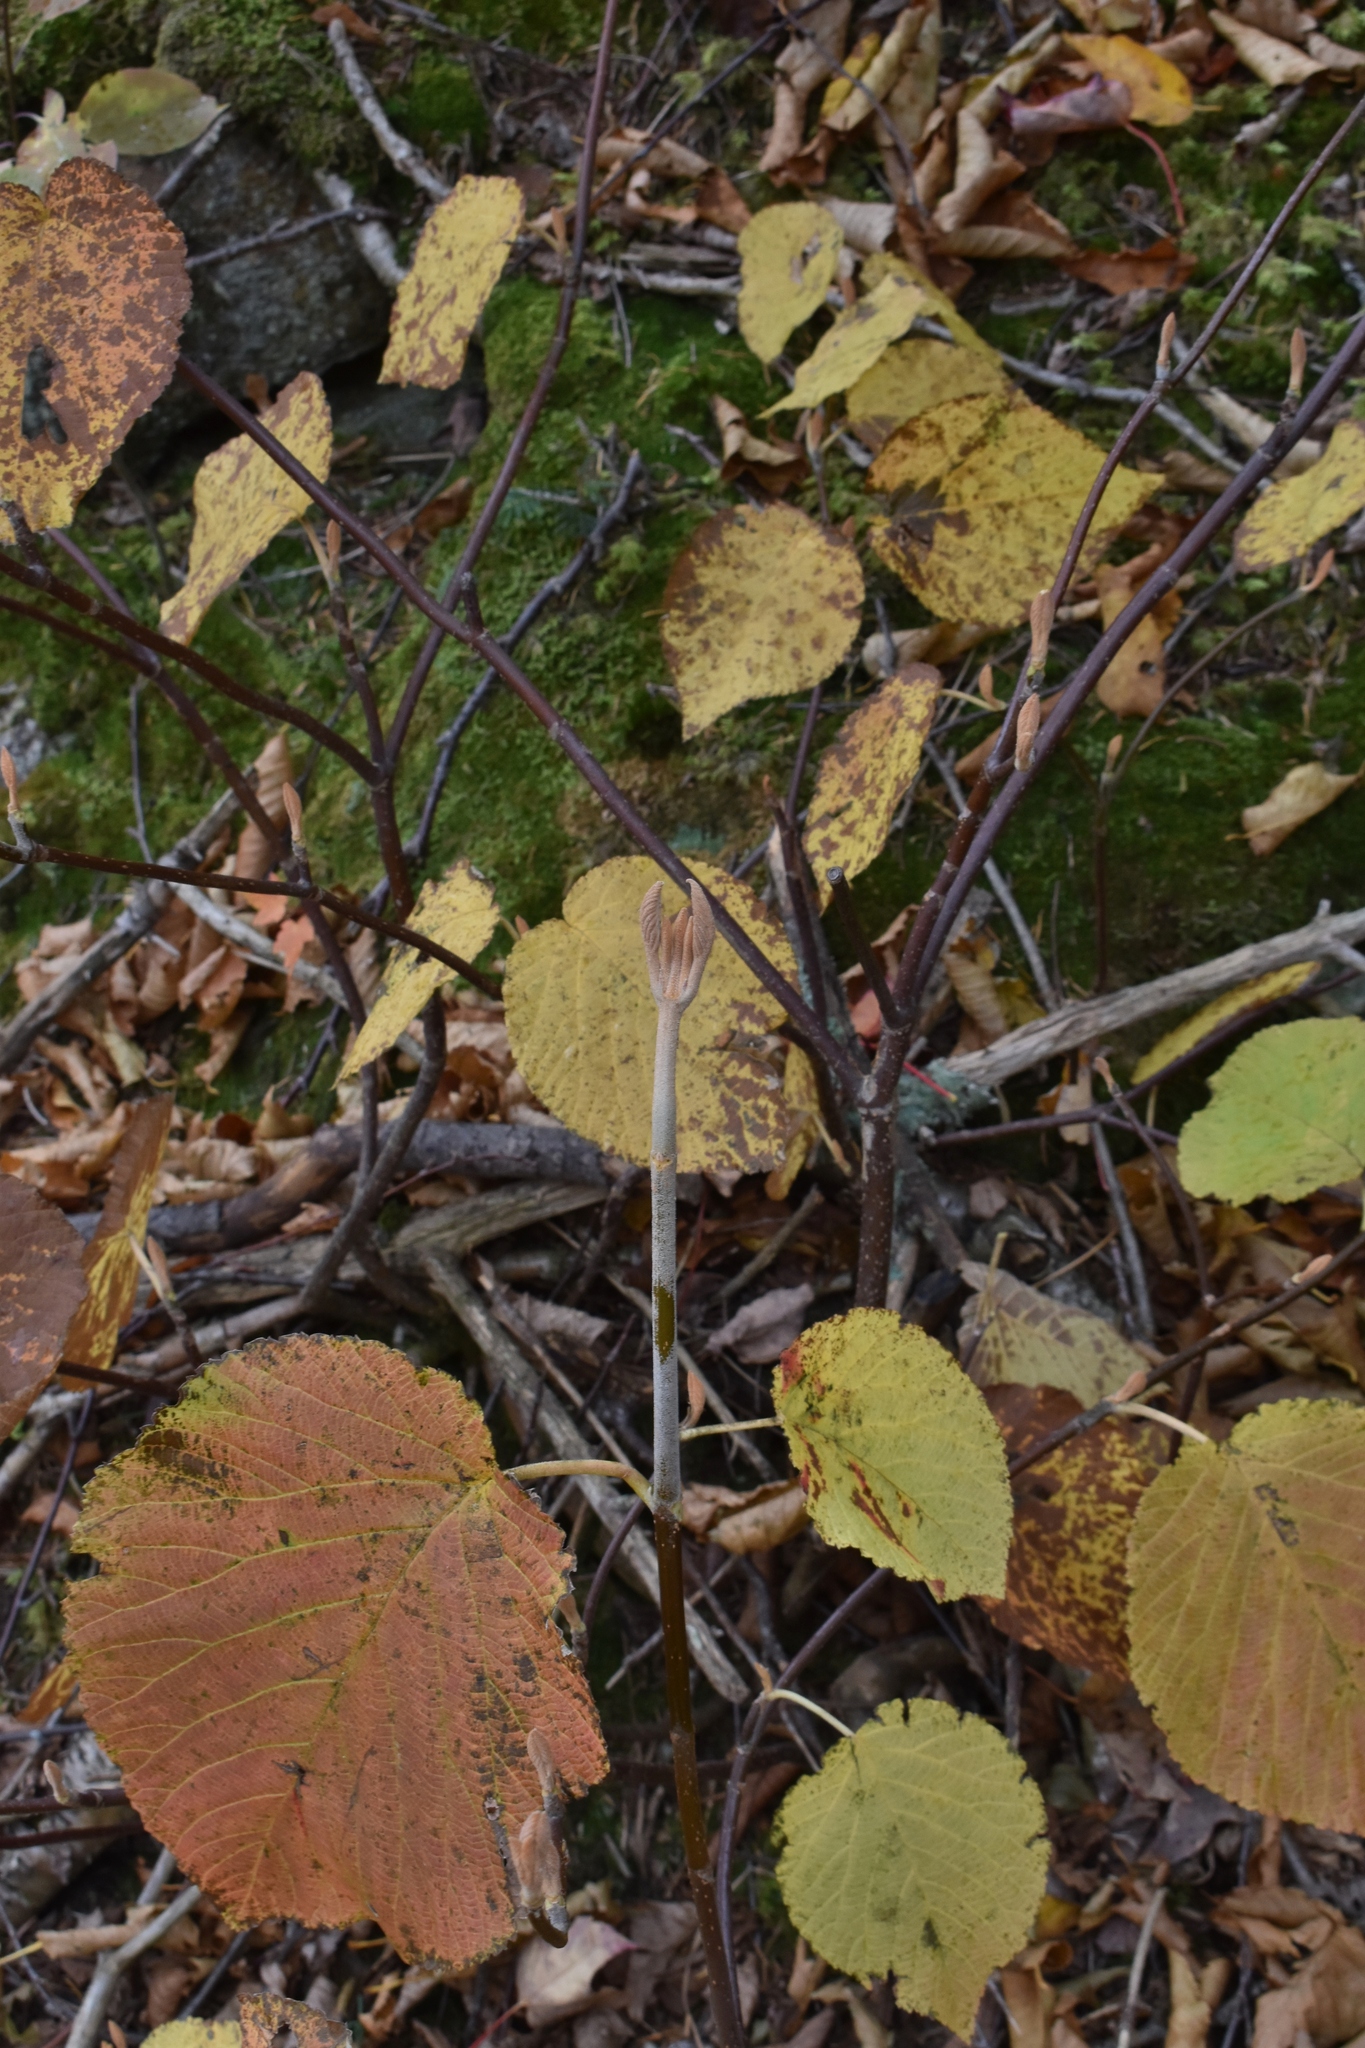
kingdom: Plantae
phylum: Tracheophyta
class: Magnoliopsida
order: Dipsacales
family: Viburnaceae
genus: Viburnum
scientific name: Viburnum lantanoides
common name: Hobblebush
